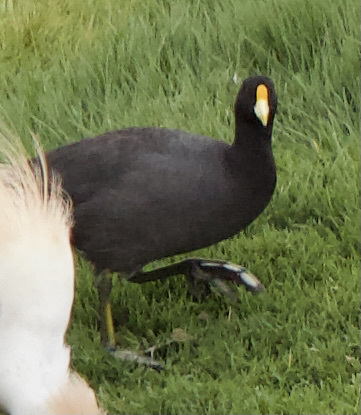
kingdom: Animalia
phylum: Chordata
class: Aves
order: Gruiformes
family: Rallidae
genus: Fulica
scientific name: Fulica leucoptera
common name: White-winged coot
